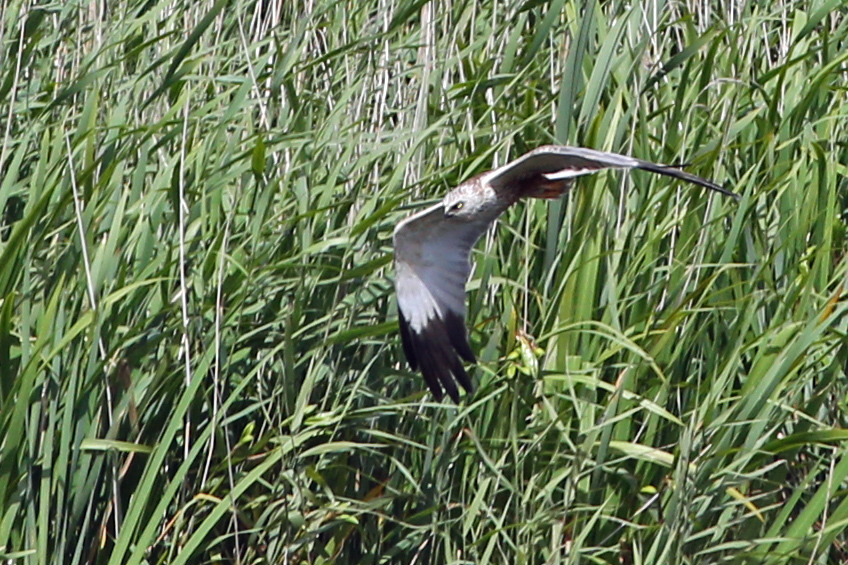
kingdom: Animalia
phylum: Chordata
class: Aves
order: Accipitriformes
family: Accipitridae
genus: Circus
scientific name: Circus aeruginosus
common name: Western marsh harrier
